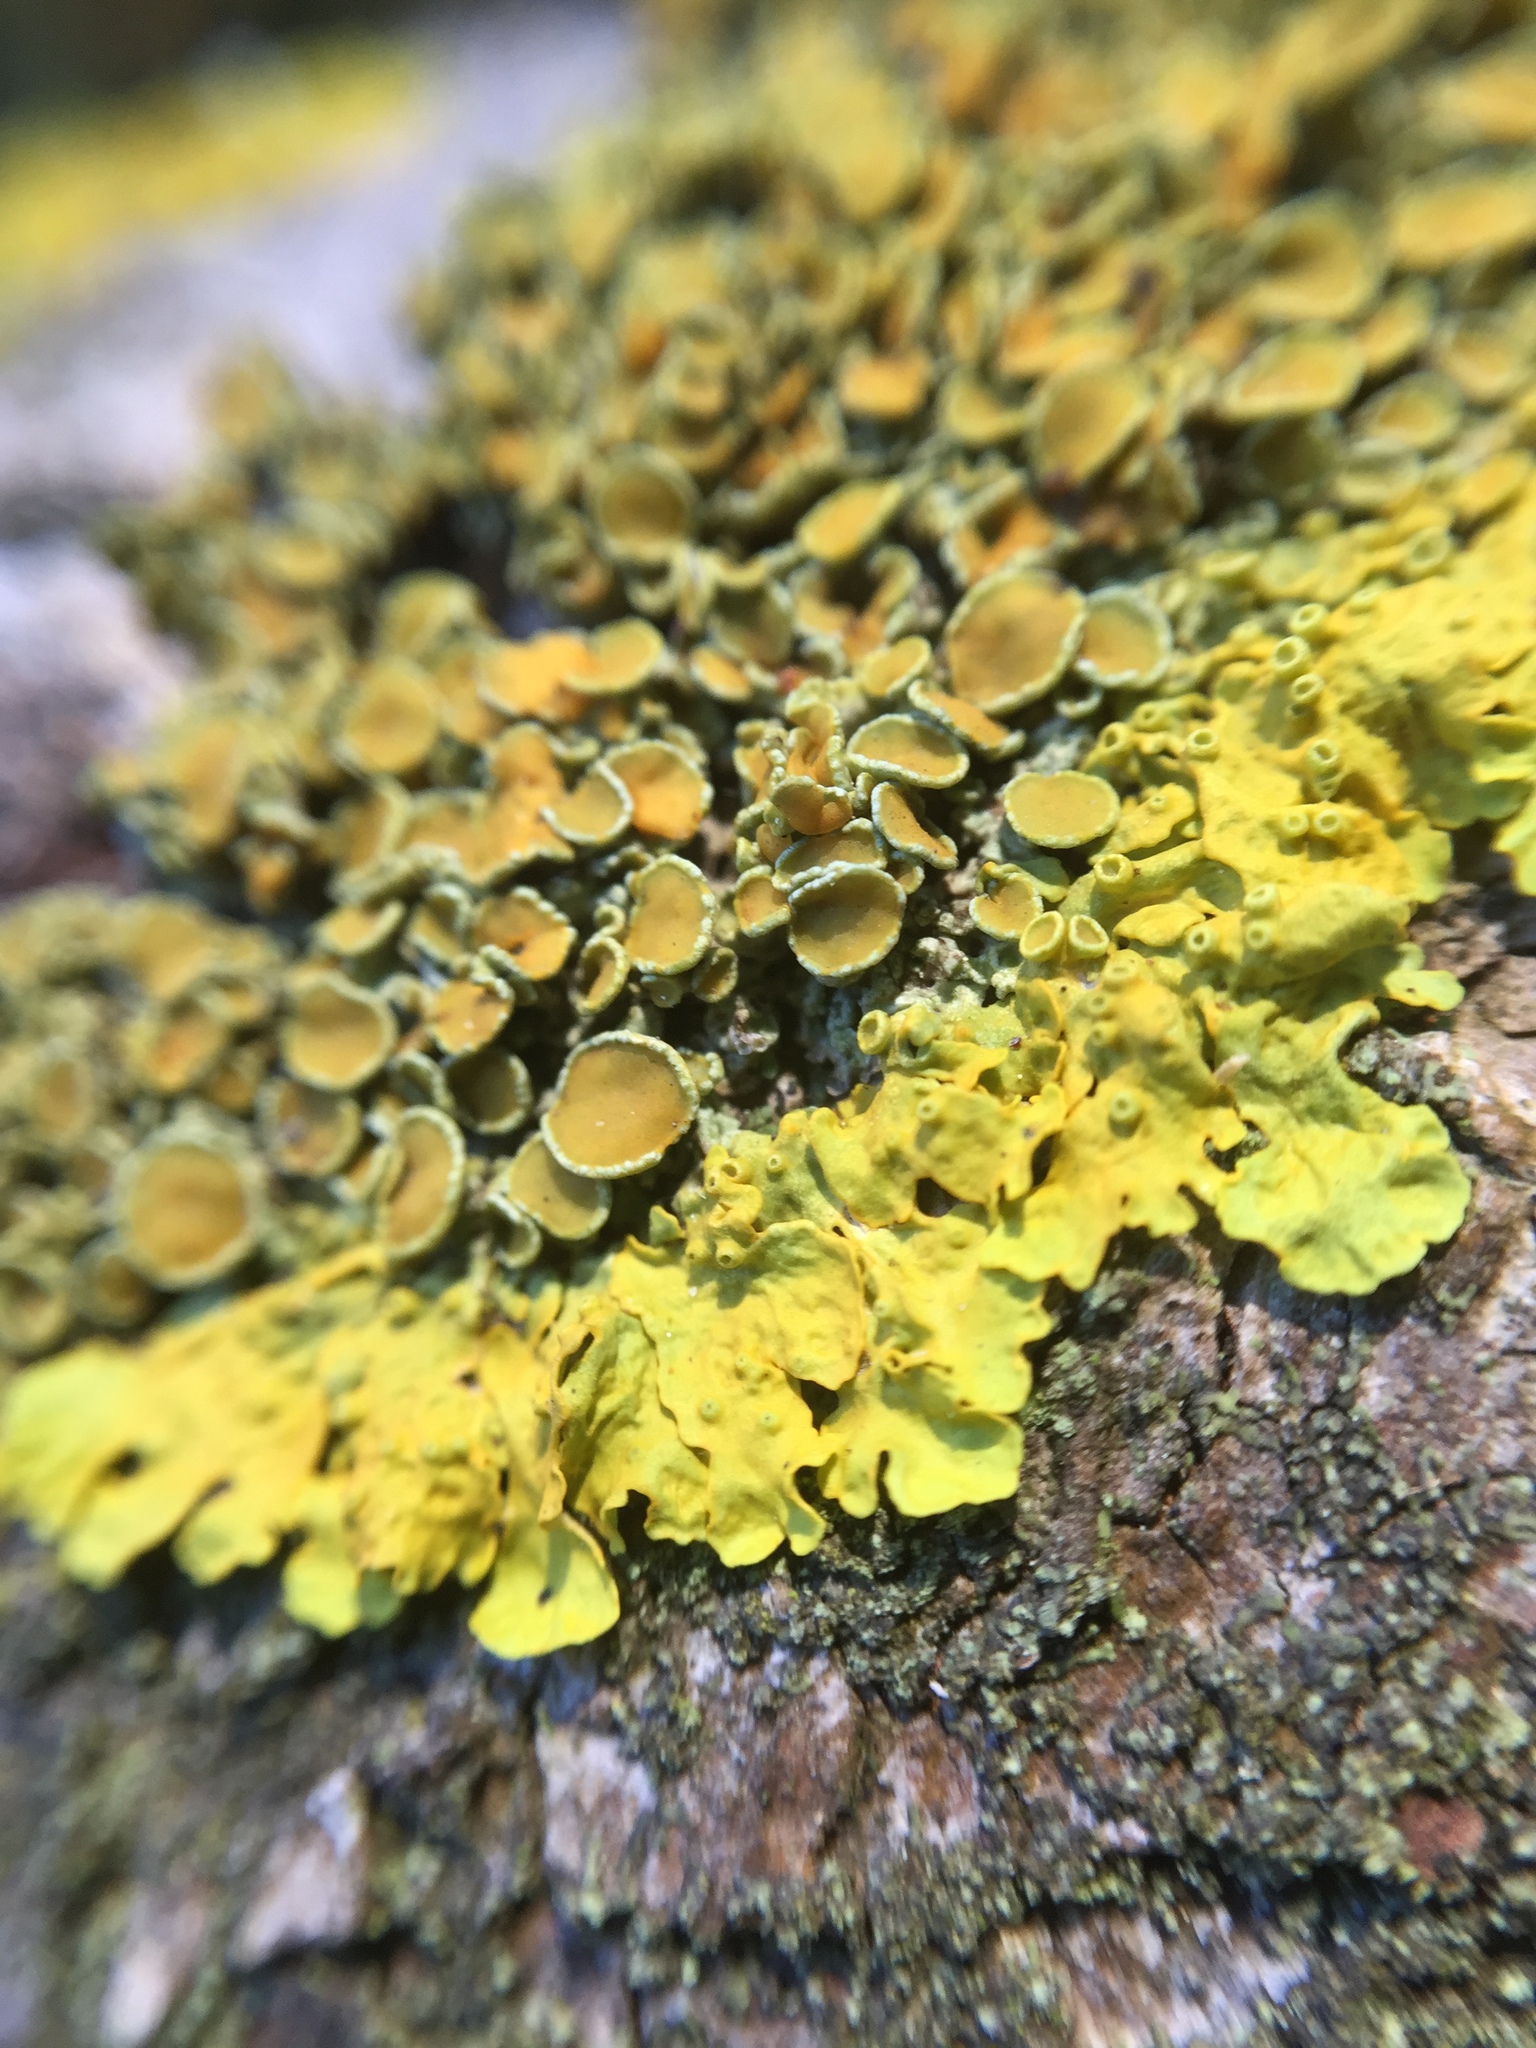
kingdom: Fungi
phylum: Ascomycota
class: Lecanoromycetes
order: Teloschistales
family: Teloschistaceae
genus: Xanthoria
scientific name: Xanthoria parietina
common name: Common orange lichen
